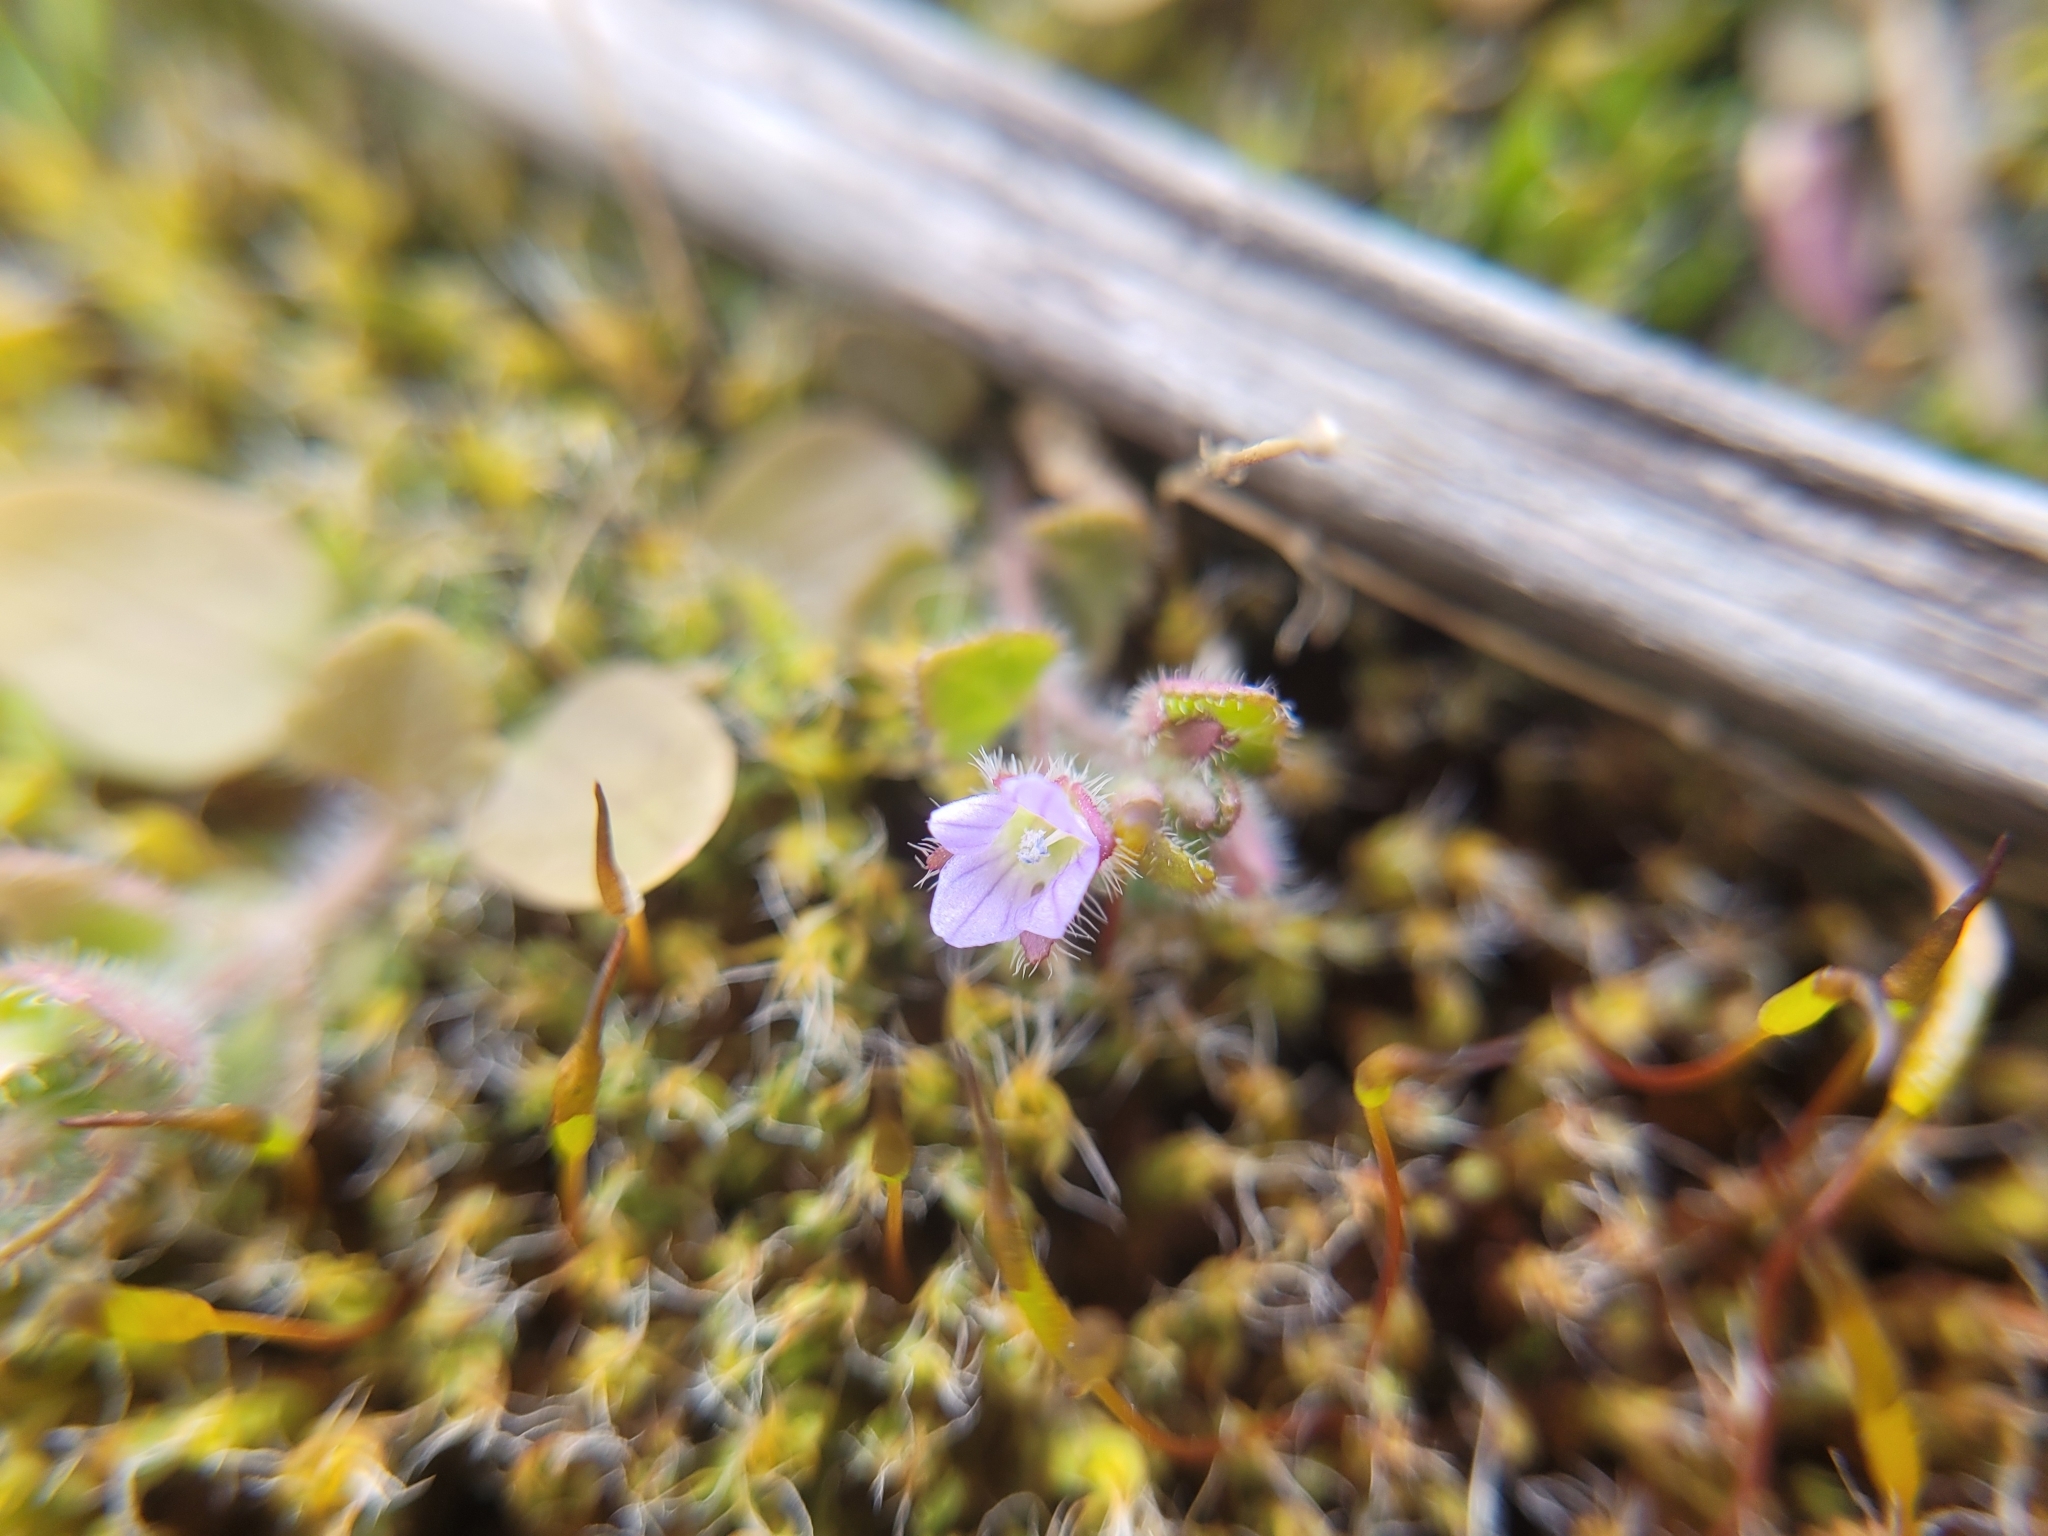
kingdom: Plantae
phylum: Tracheophyta
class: Magnoliopsida
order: Lamiales
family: Plantaginaceae
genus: Veronica
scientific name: Veronica sublobata
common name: False ivy-leaved speedwell
